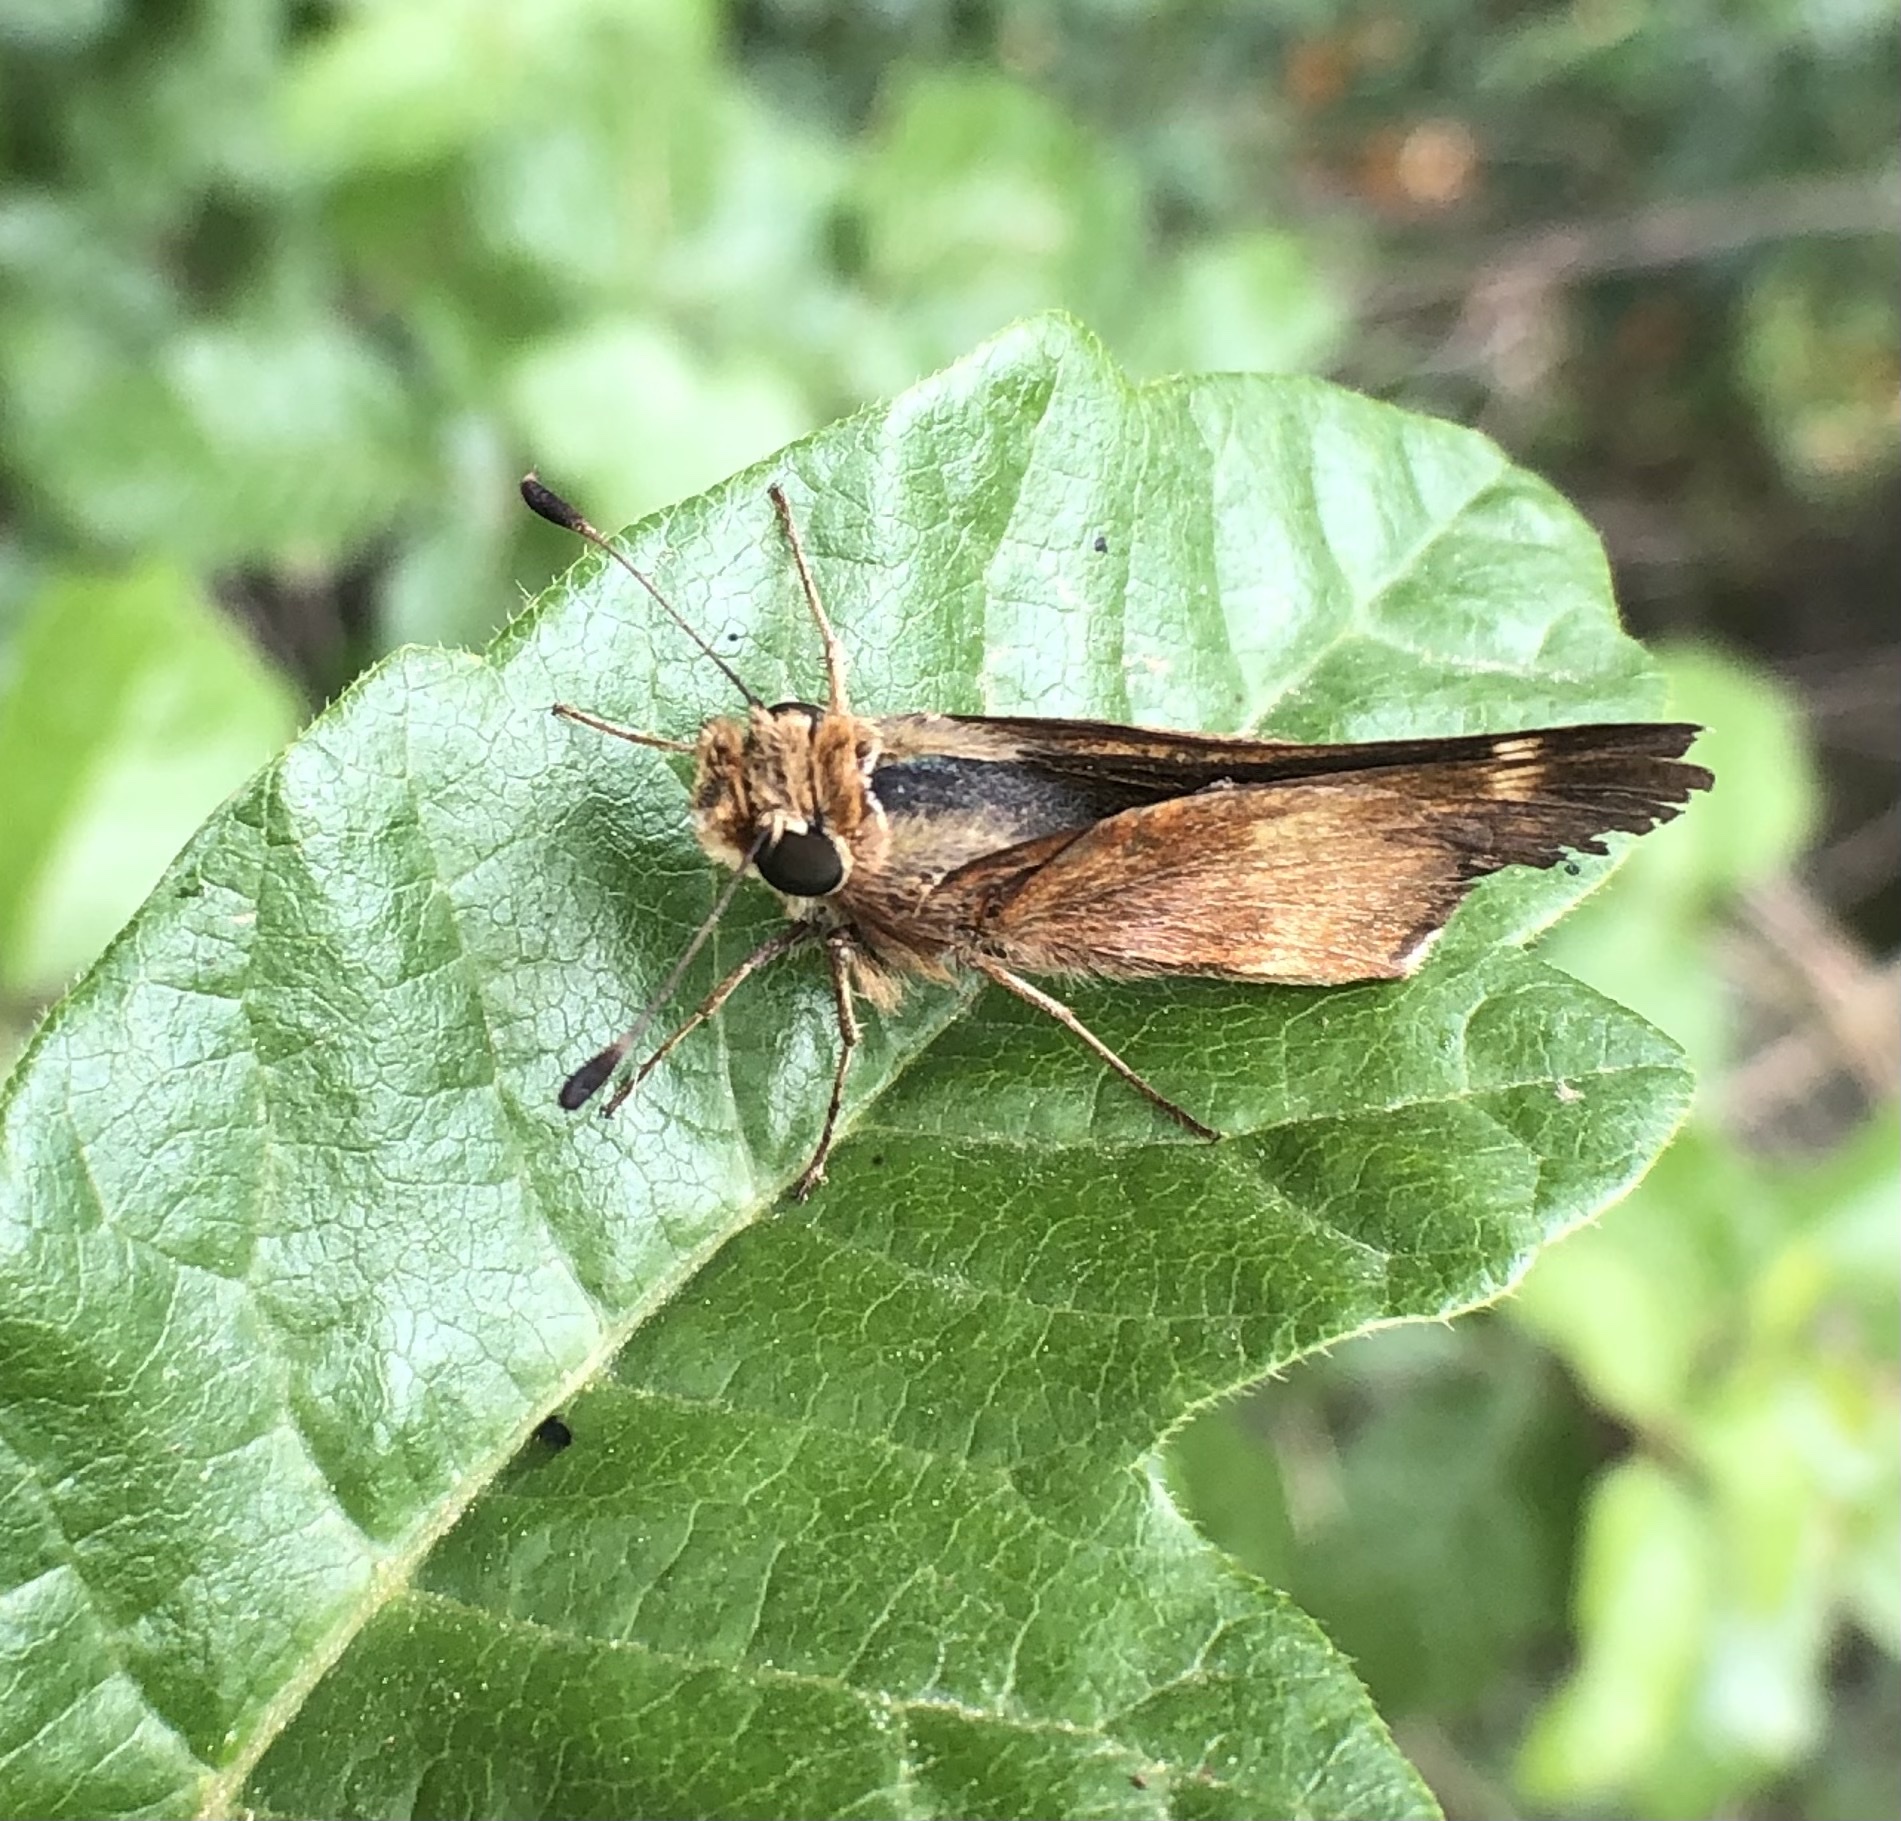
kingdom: Animalia
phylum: Arthropoda
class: Insecta
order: Lepidoptera
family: Hesperiidae
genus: Lon
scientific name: Lon melane
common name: Umber skipper
